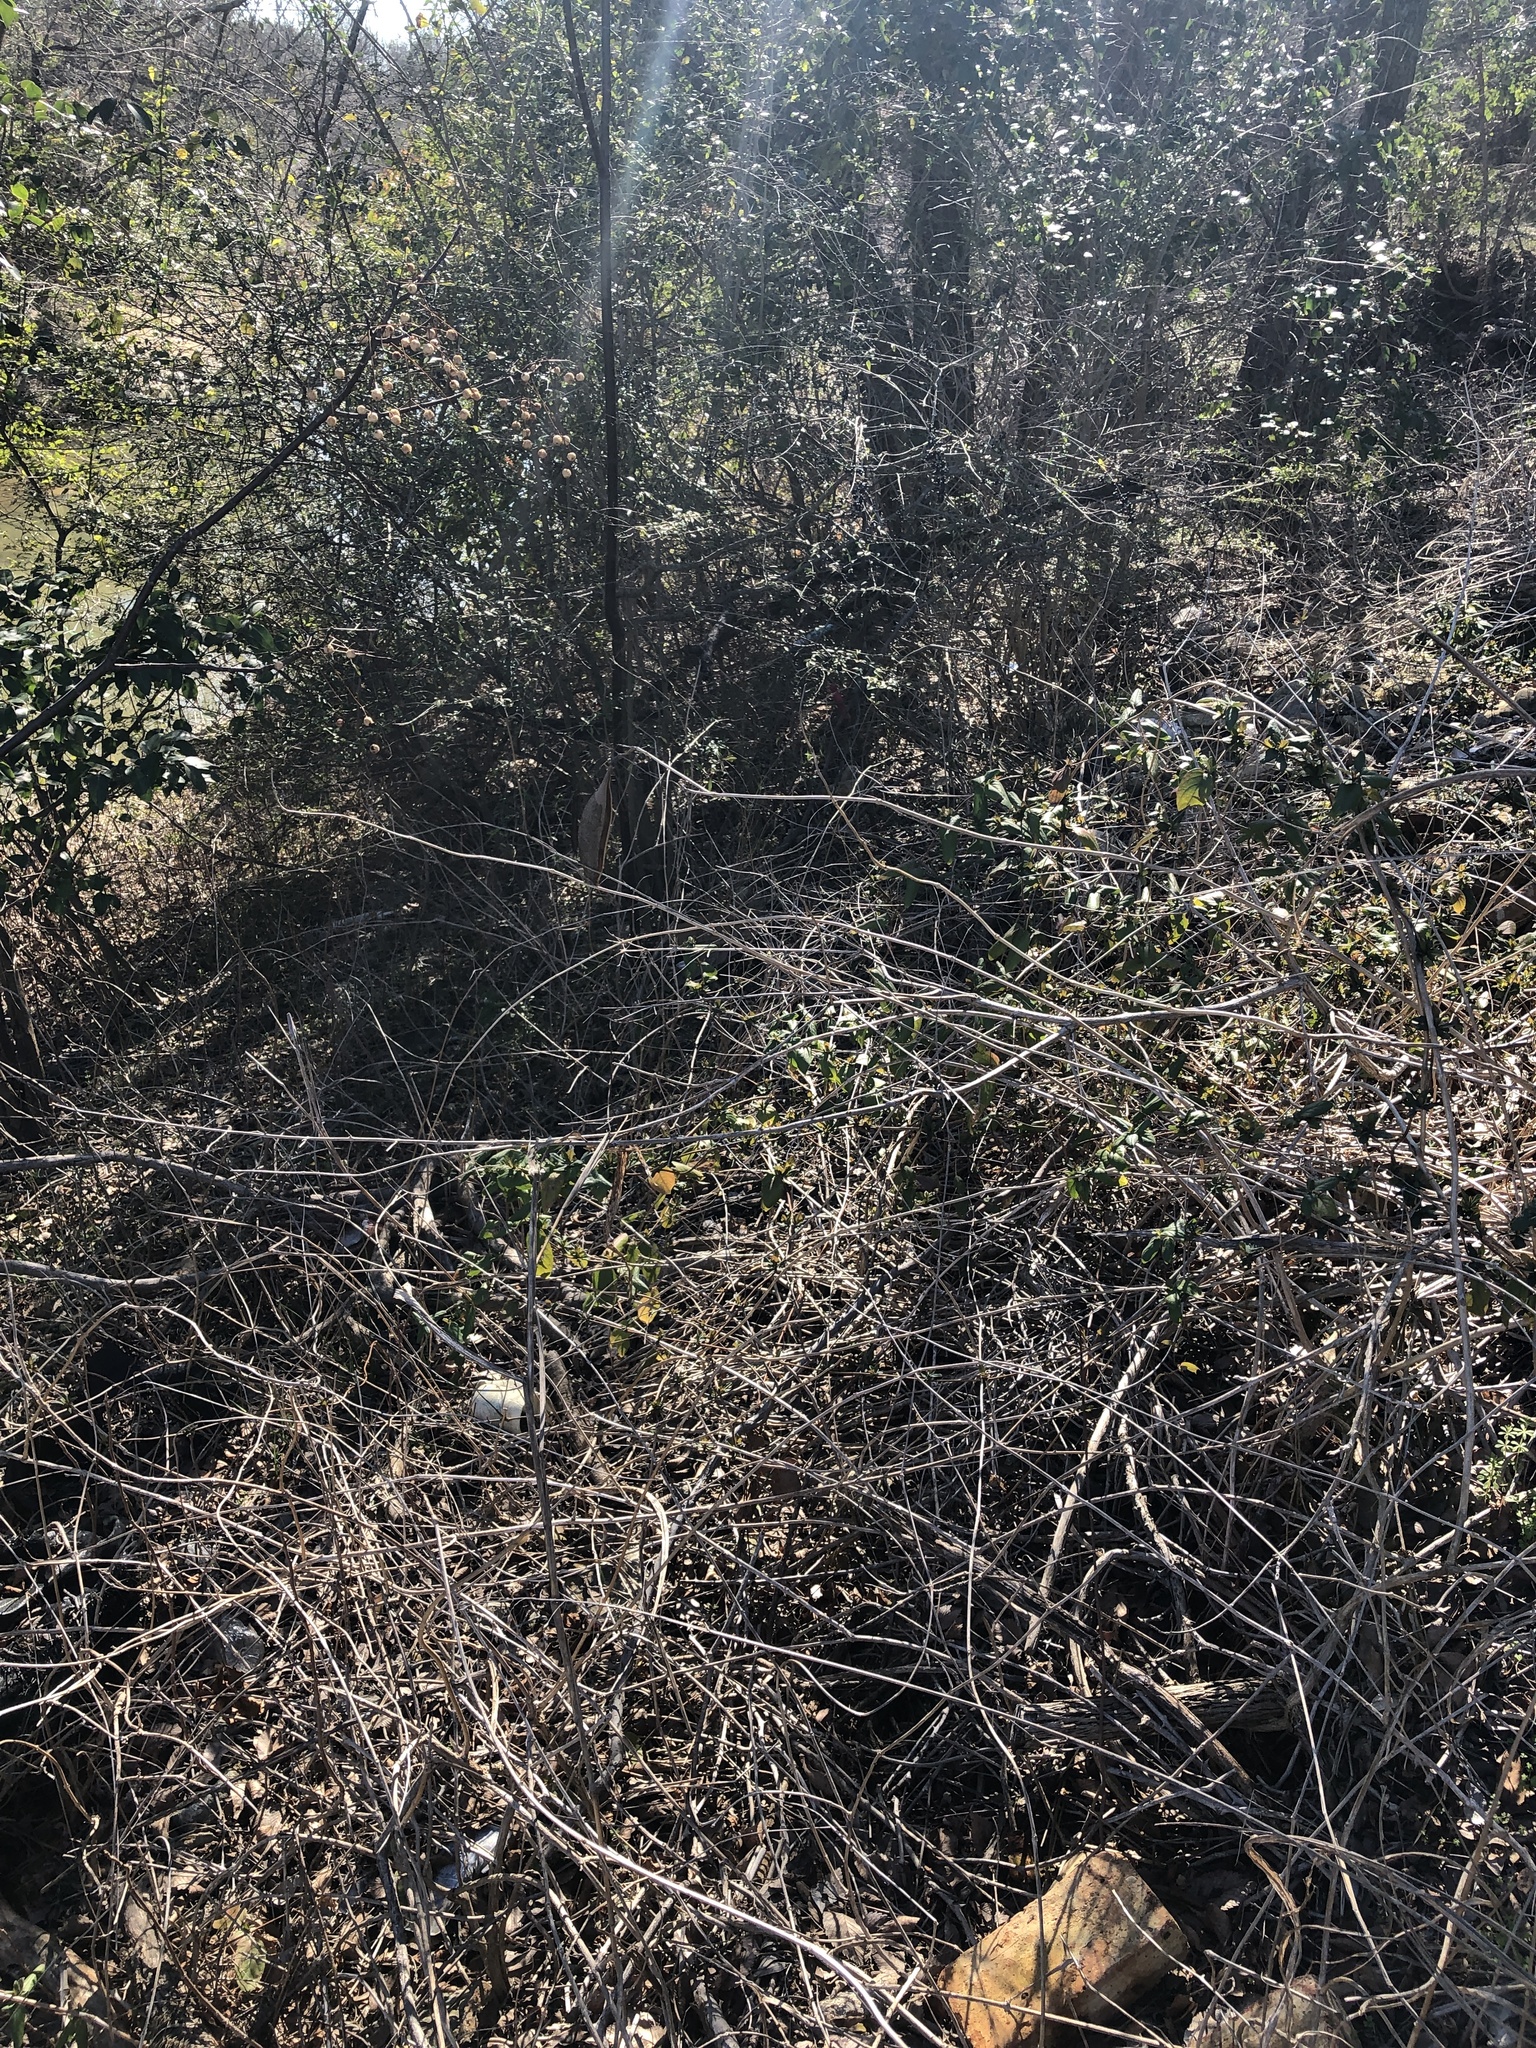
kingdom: Plantae
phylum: Tracheophyta
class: Magnoliopsida
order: Lamiales
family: Bignoniaceae
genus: Campsis
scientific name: Campsis radicans
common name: Trumpet-creeper
